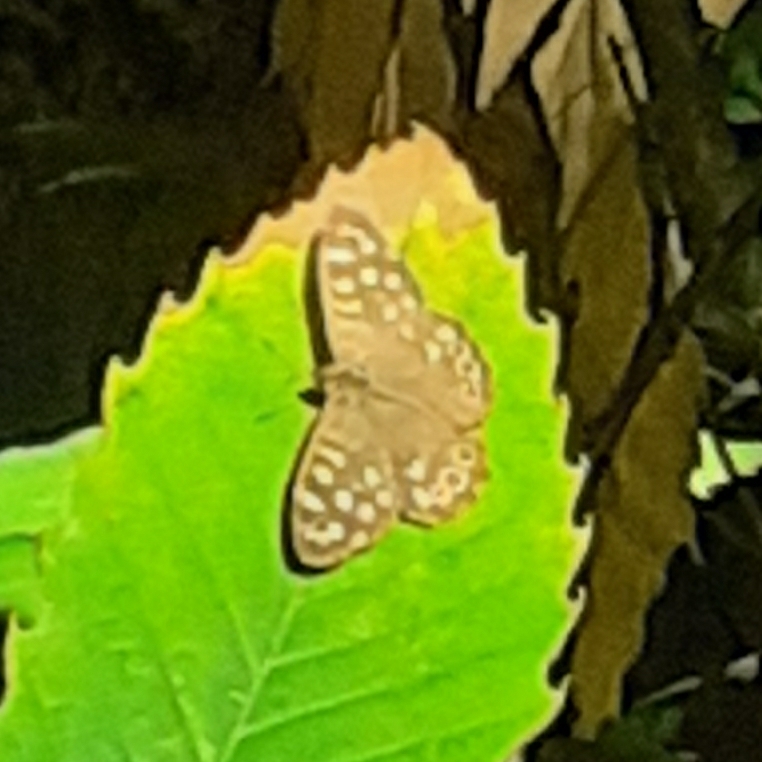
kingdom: Animalia
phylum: Arthropoda
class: Insecta
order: Lepidoptera
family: Nymphalidae
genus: Pararge
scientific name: Pararge aegeria
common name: Speckled wood
